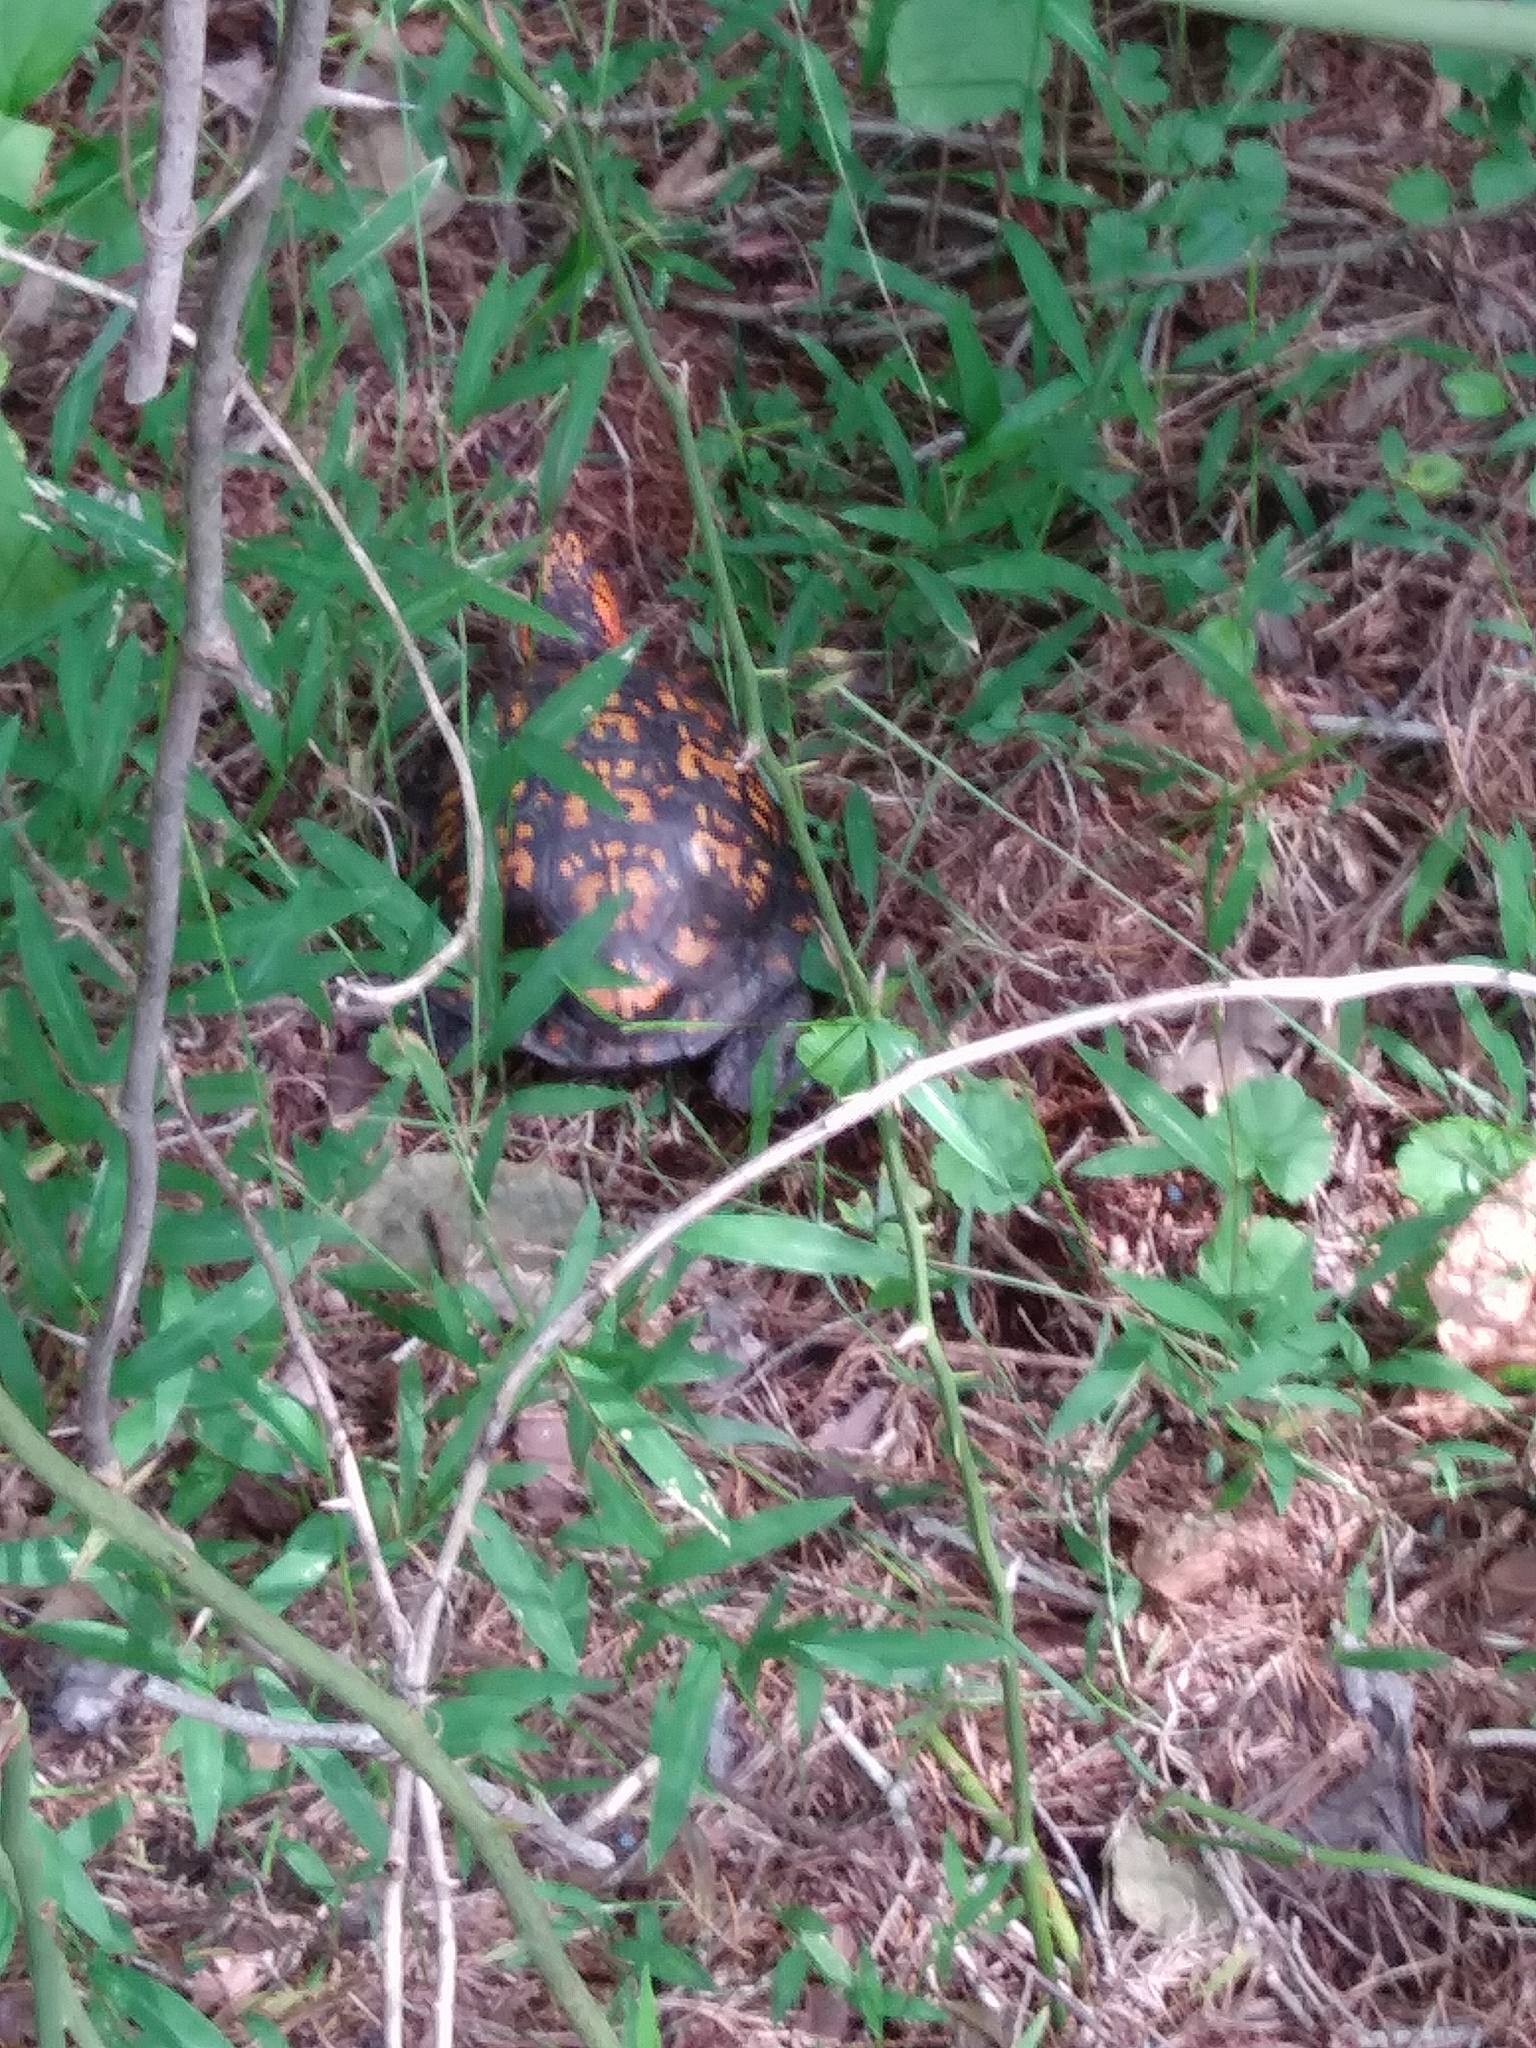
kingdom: Animalia
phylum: Chordata
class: Testudines
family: Emydidae
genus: Terrapene
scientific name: Terrapene carolina
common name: Common box turtle
